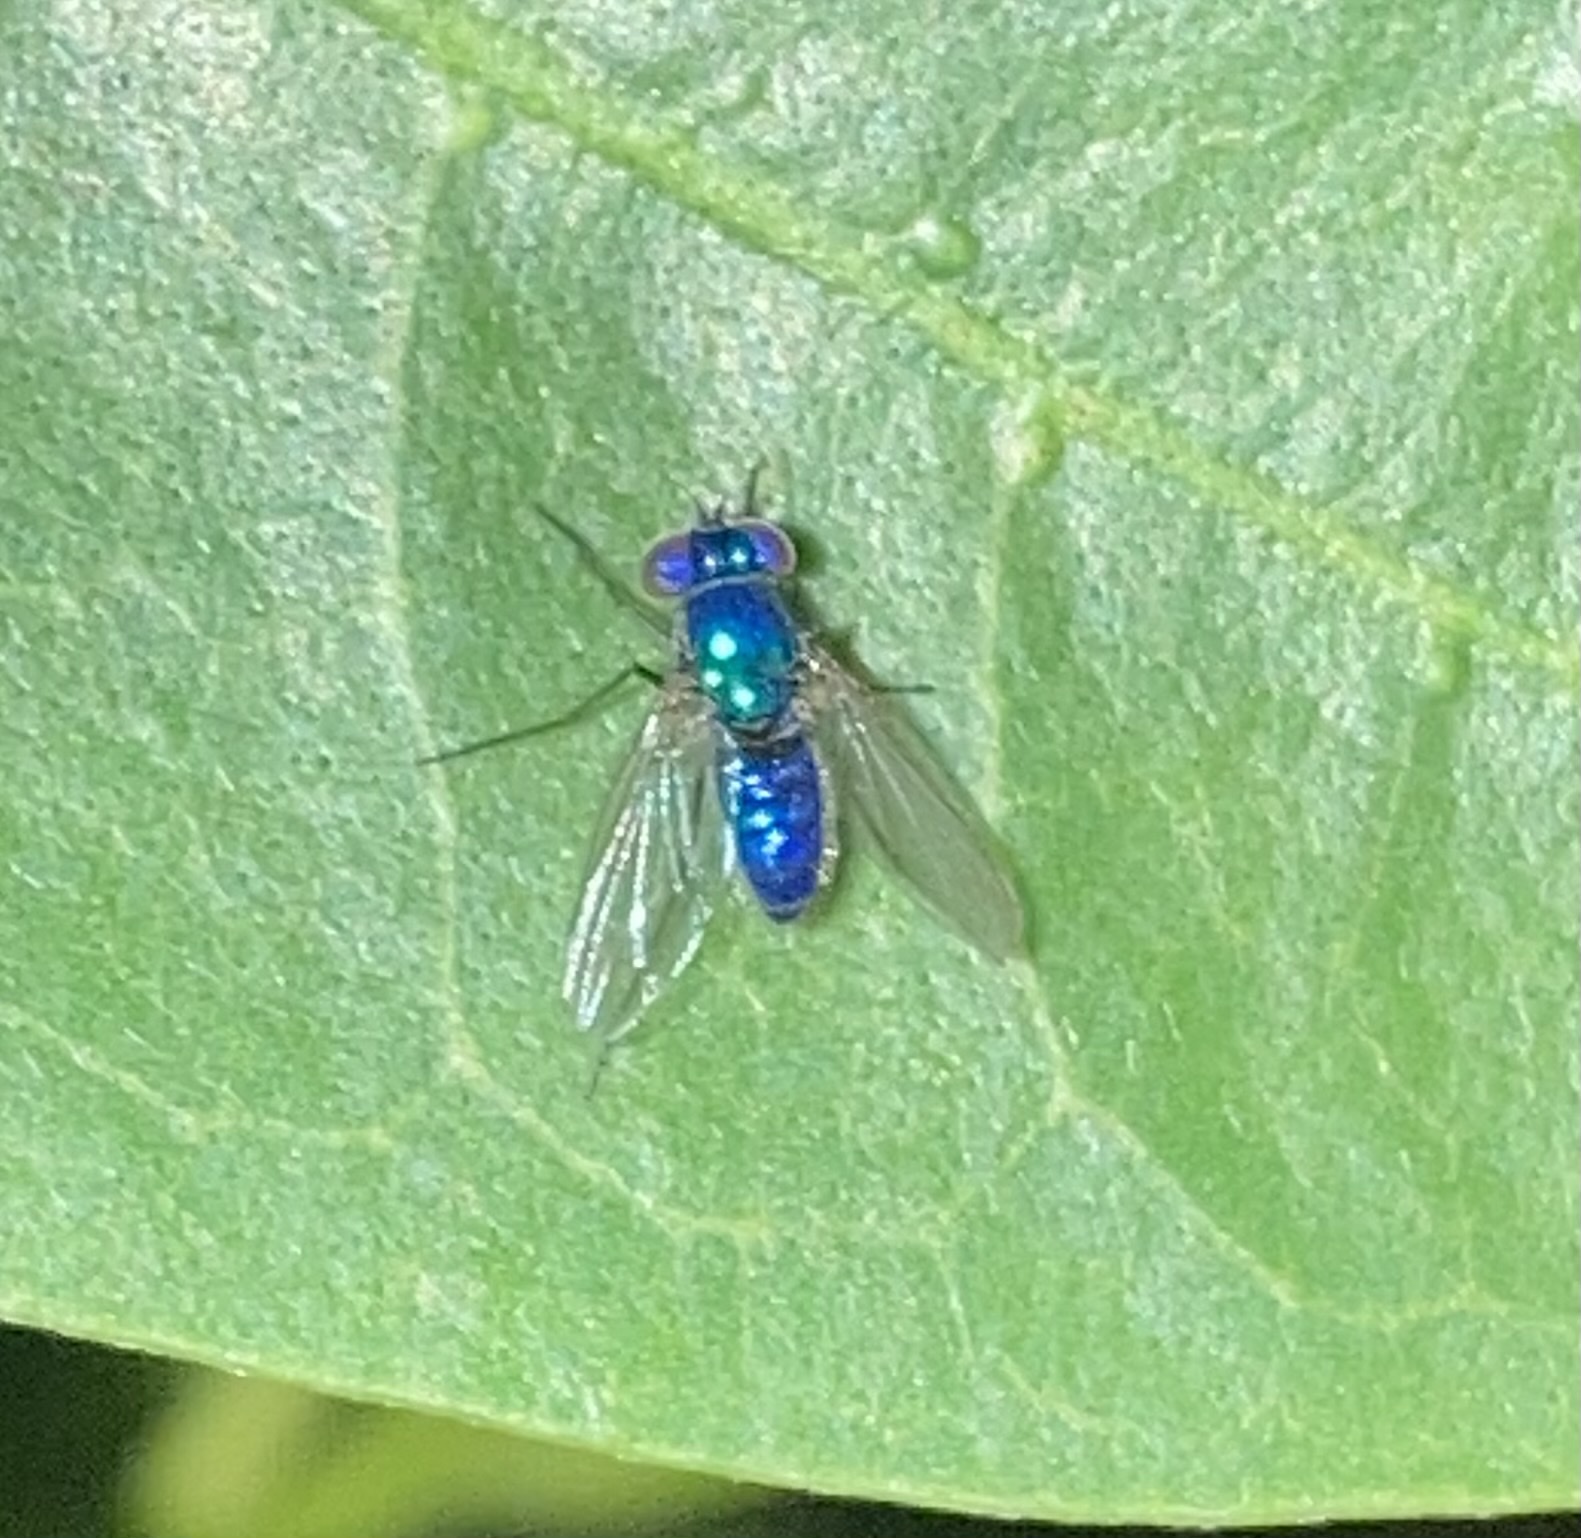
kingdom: Animalia
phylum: Arthropoda
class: Insecta
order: Diptera
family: Dolichopodidae
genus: Condylostylus
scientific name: Condylostylus mundus
